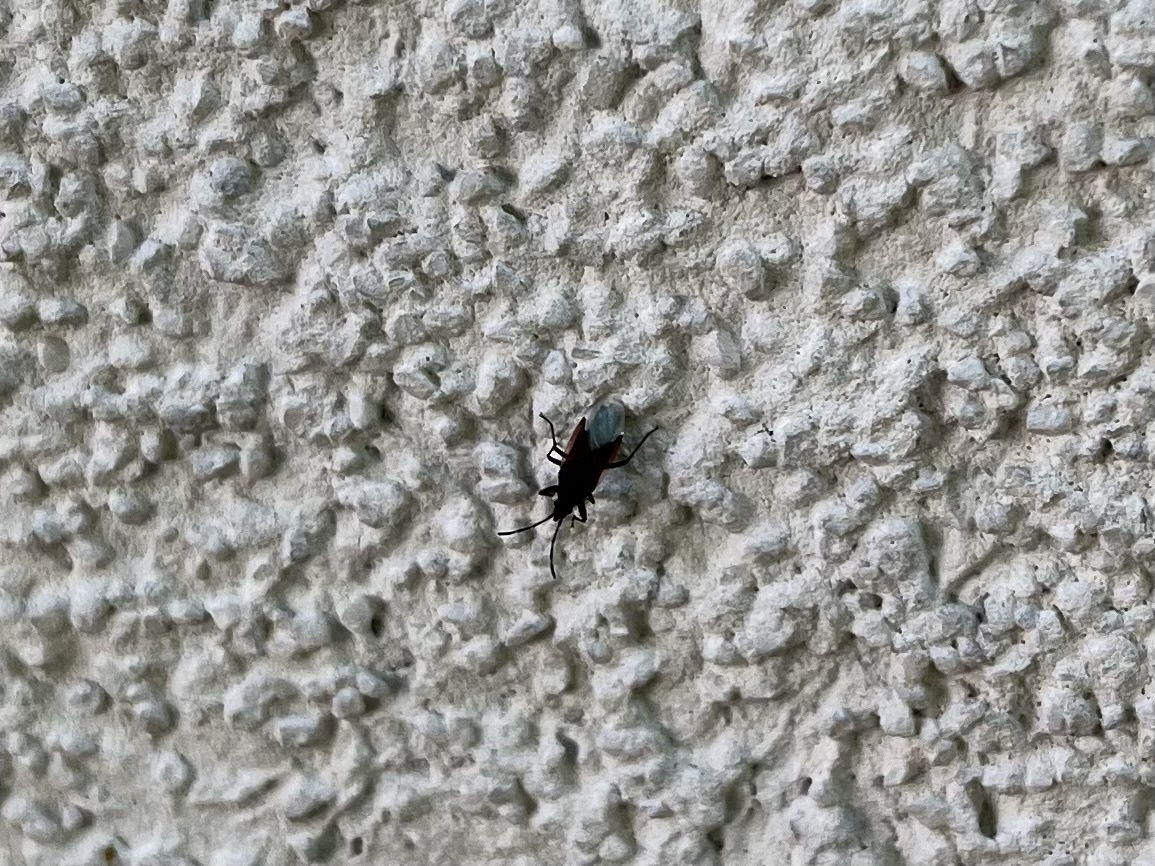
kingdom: Animalia
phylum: Arthropoda
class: Insecta
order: Hemiptera
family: Oxycarenidae
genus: Oxycarenus
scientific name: Oxycarenus lavaterae
